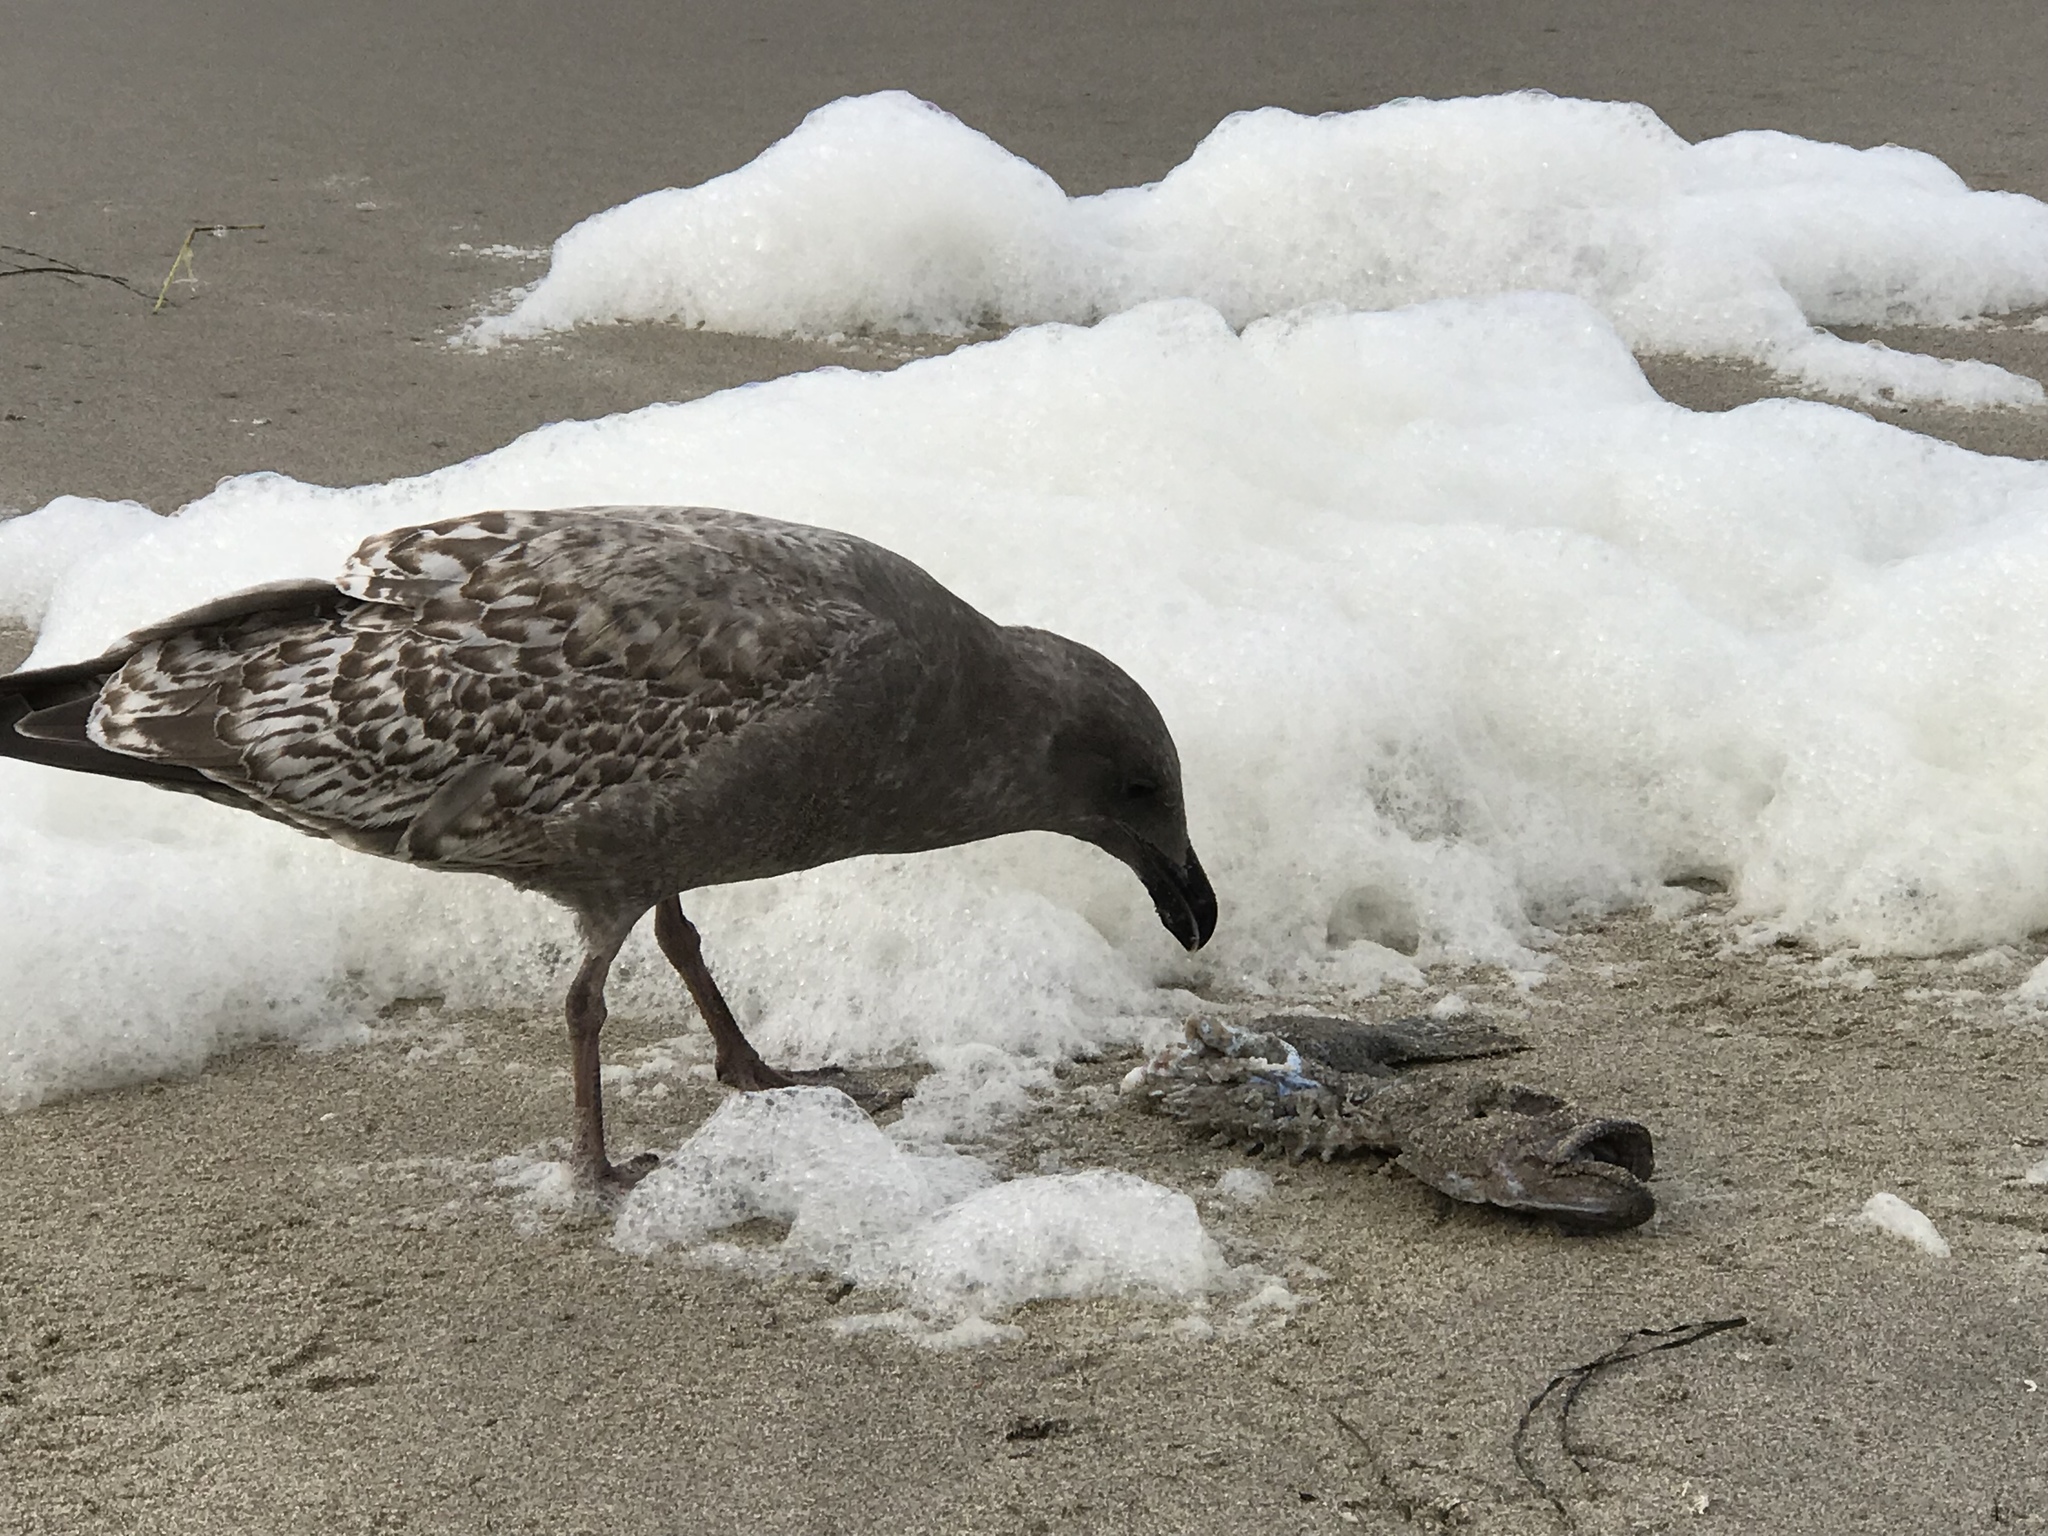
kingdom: Animalia
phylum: Chordata
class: Aves
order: Charadriiformes
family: Laridae
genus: Larus
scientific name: Larus occidentalis
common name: Western gull
